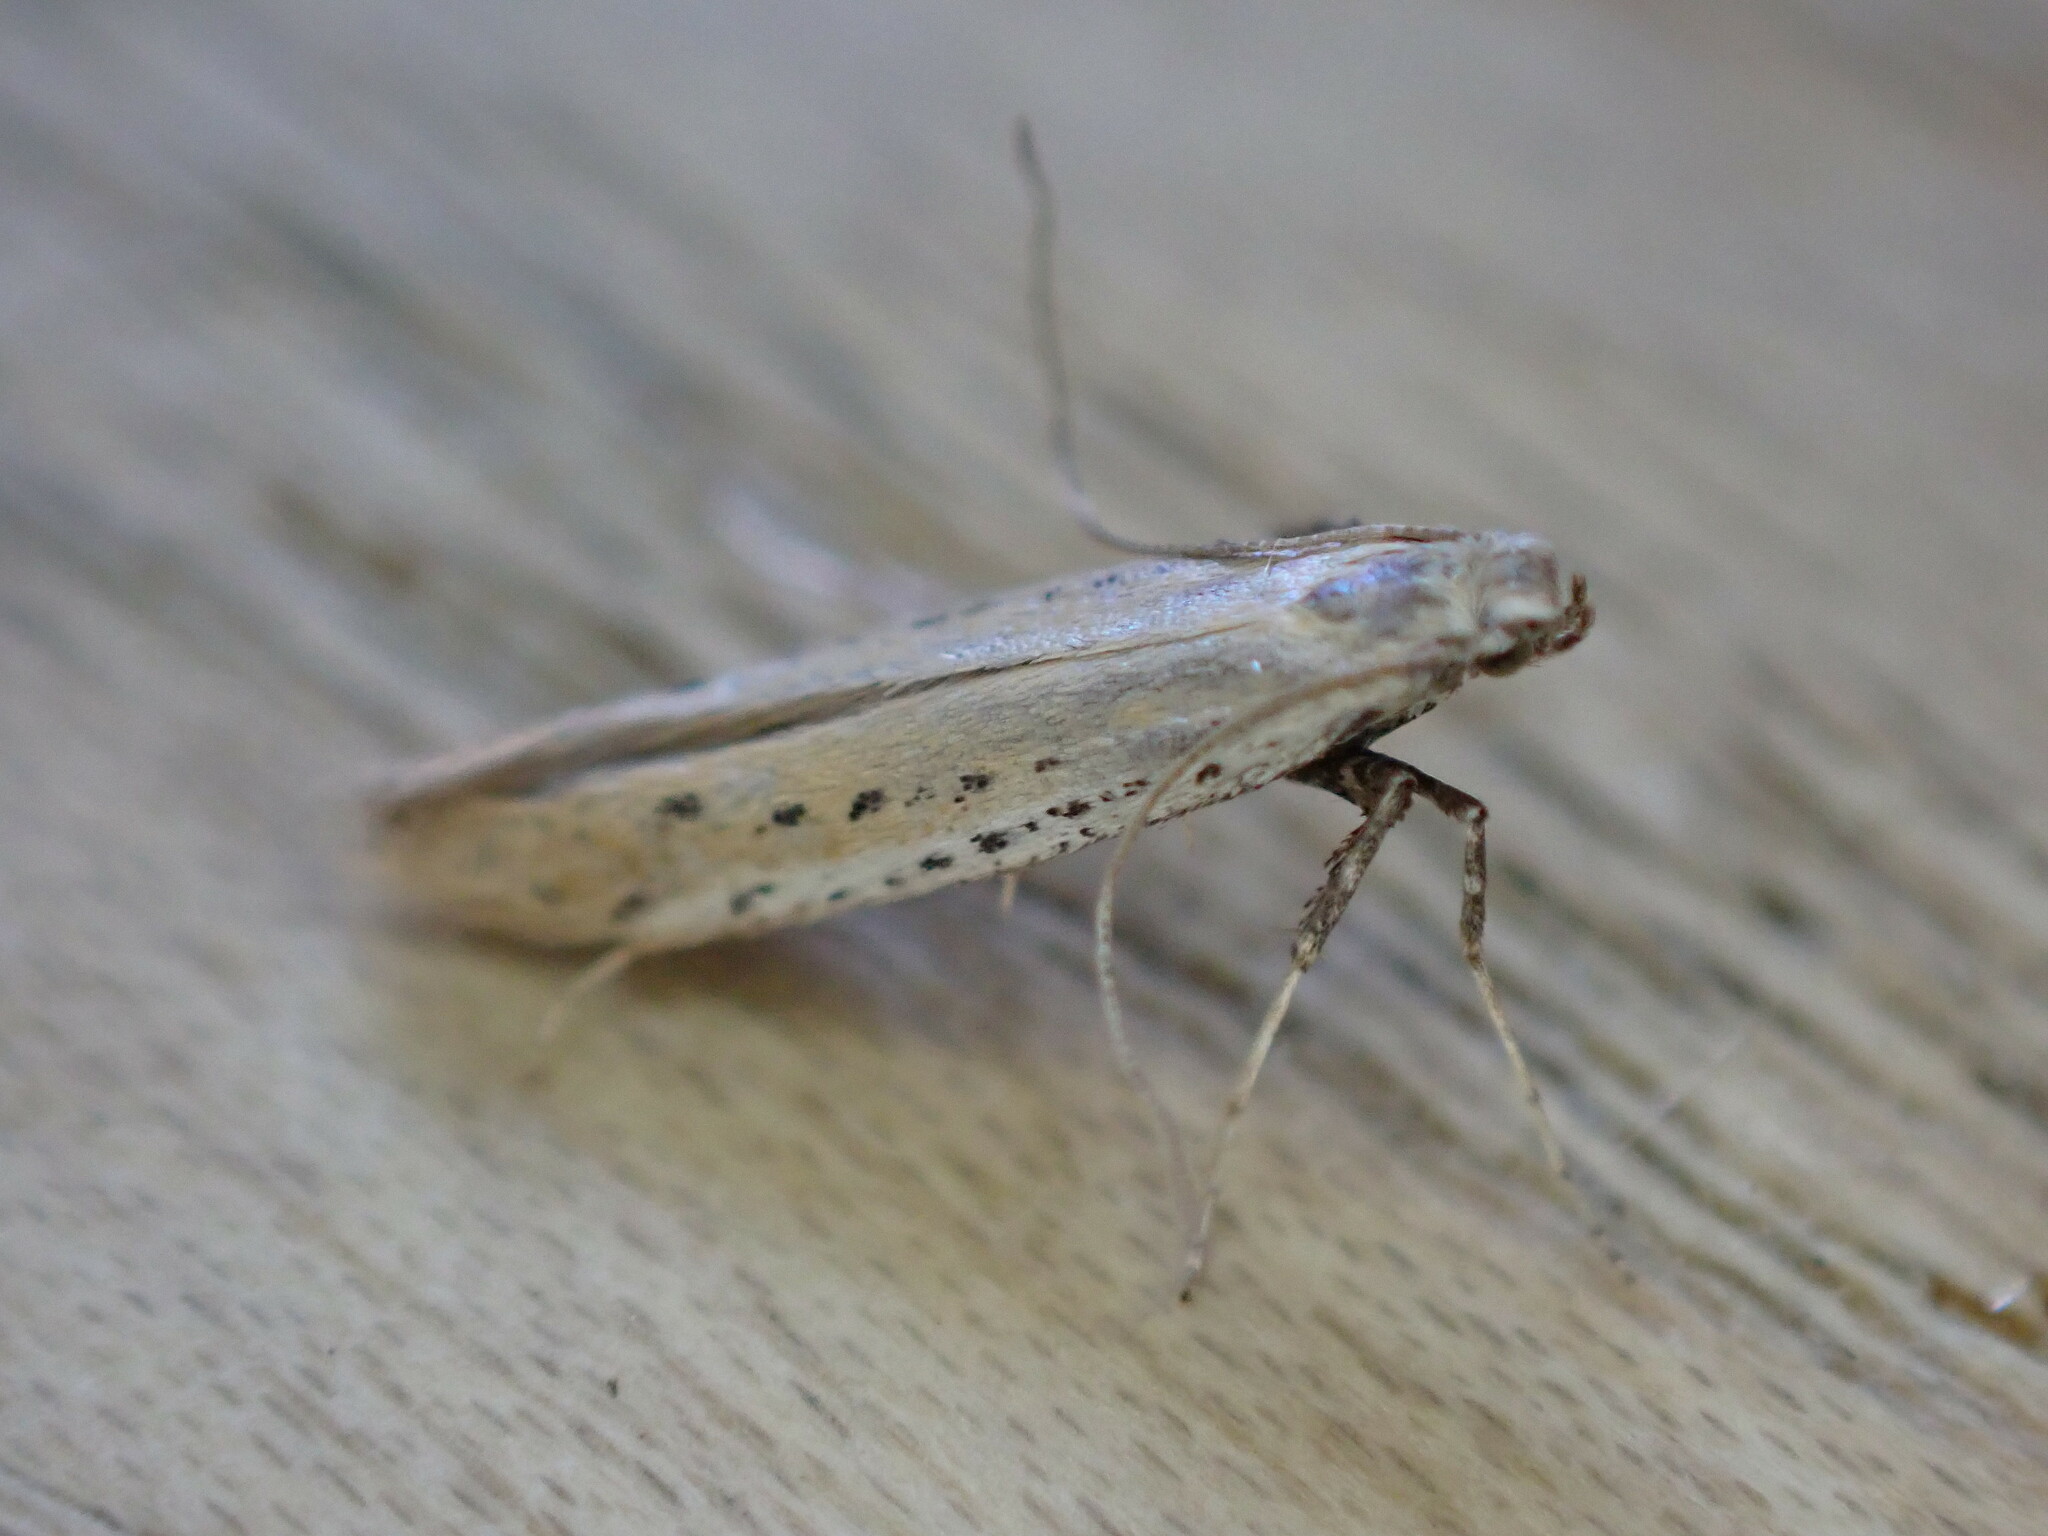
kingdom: Animalia
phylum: Arthropoda
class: Insecta
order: Lepidoptera
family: Gracillariidae
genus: Aspilapteryx
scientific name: Aspilapteryx tringipennella
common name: Ribwort slender
